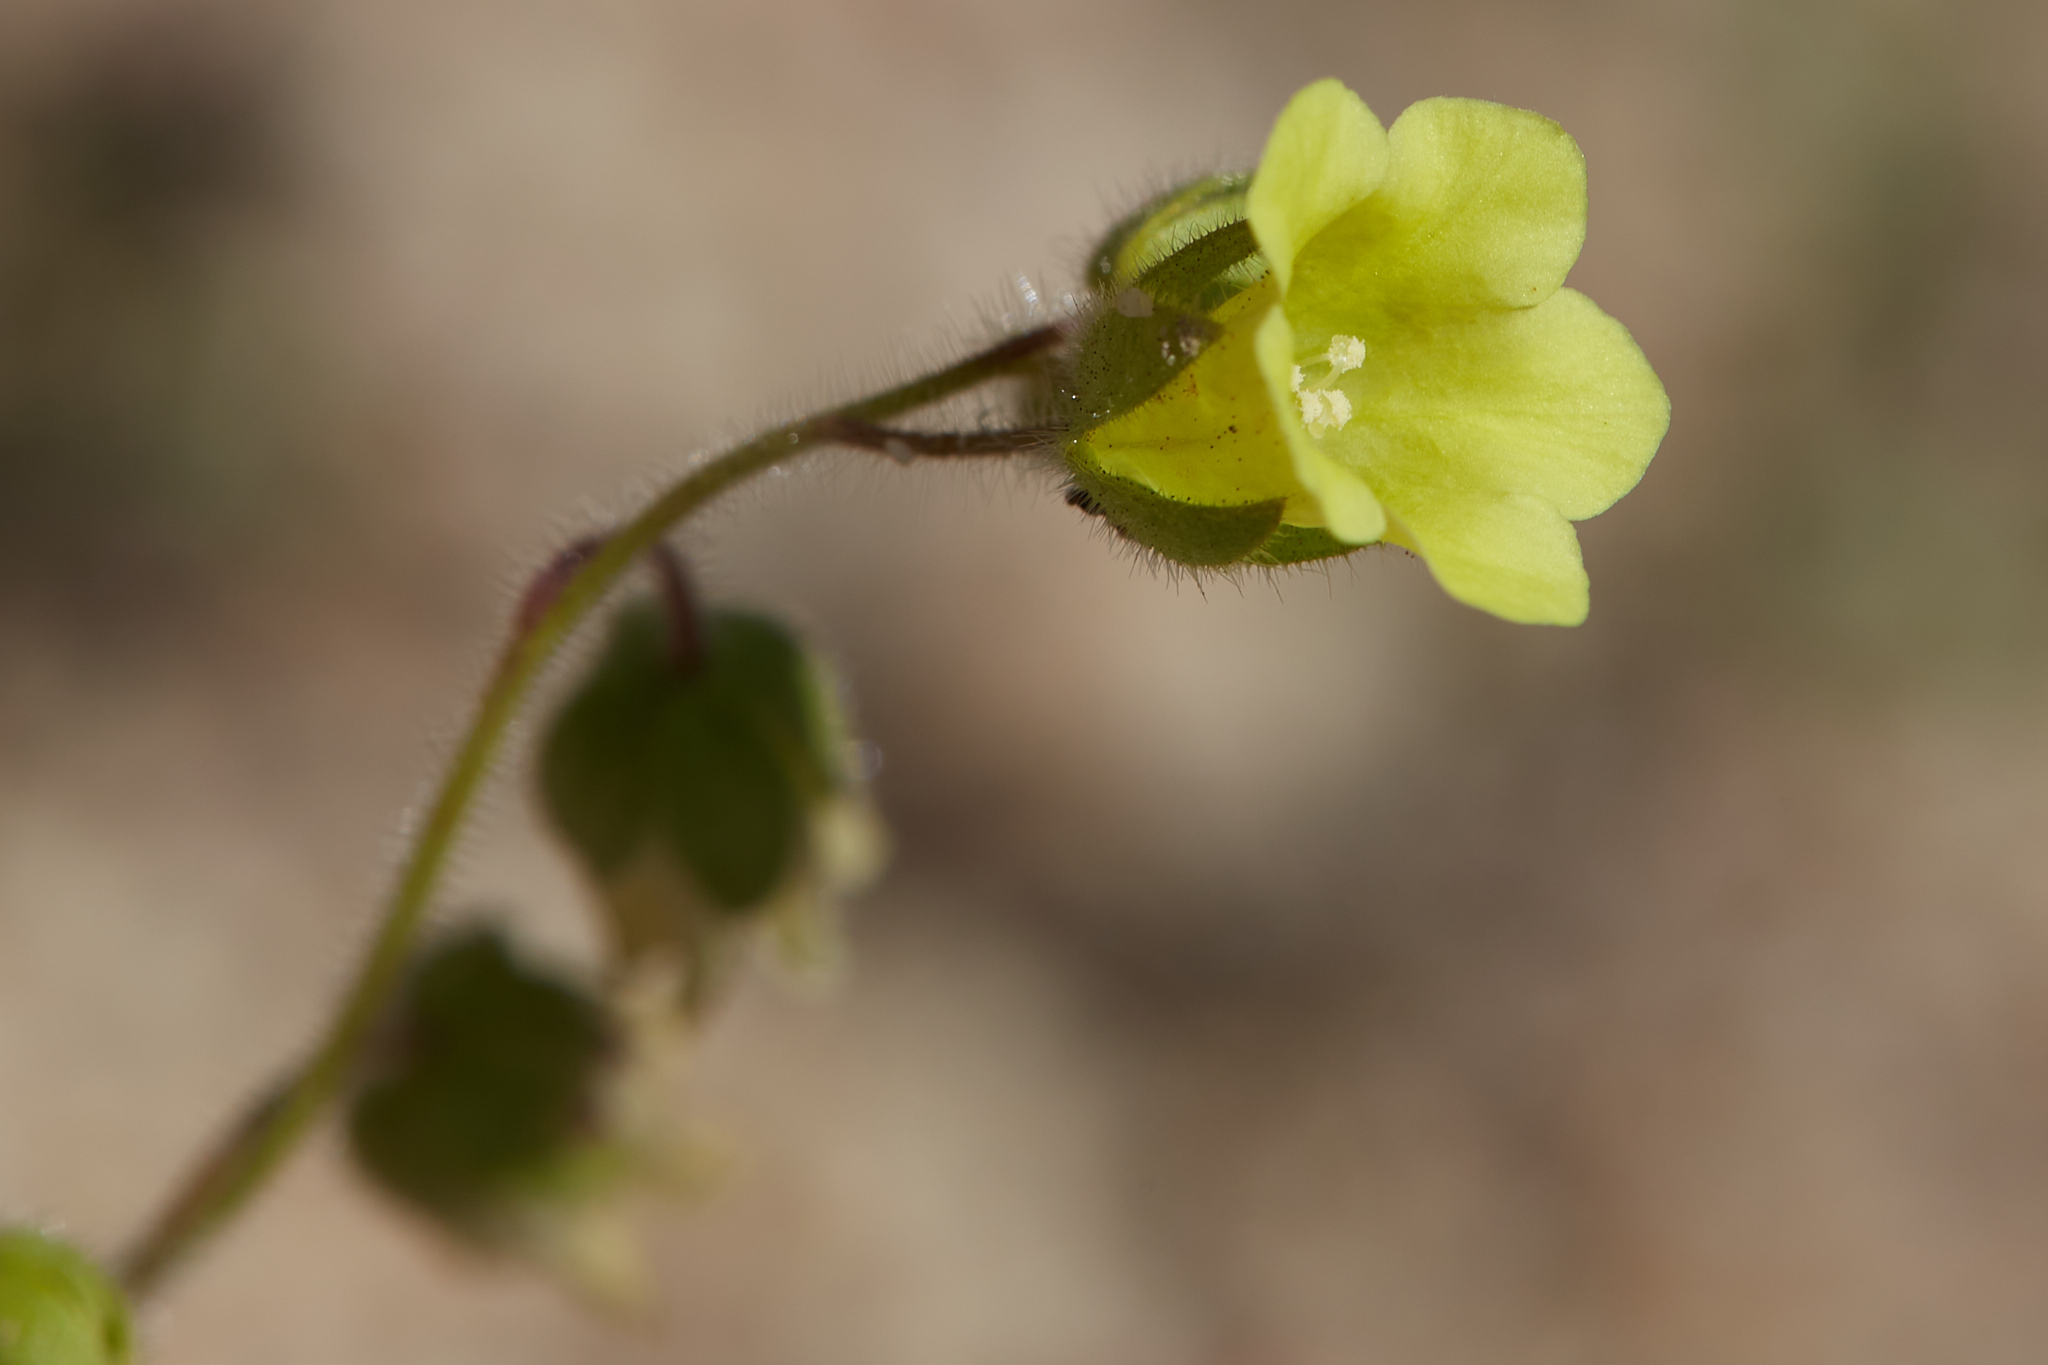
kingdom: Plantae
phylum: Tracheophyta
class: Magnoliopsida
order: Boraginales
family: Hydrophyllaceae
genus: Emmenanthe
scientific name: Emmenanthe penduliflora
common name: Whispering-bells
